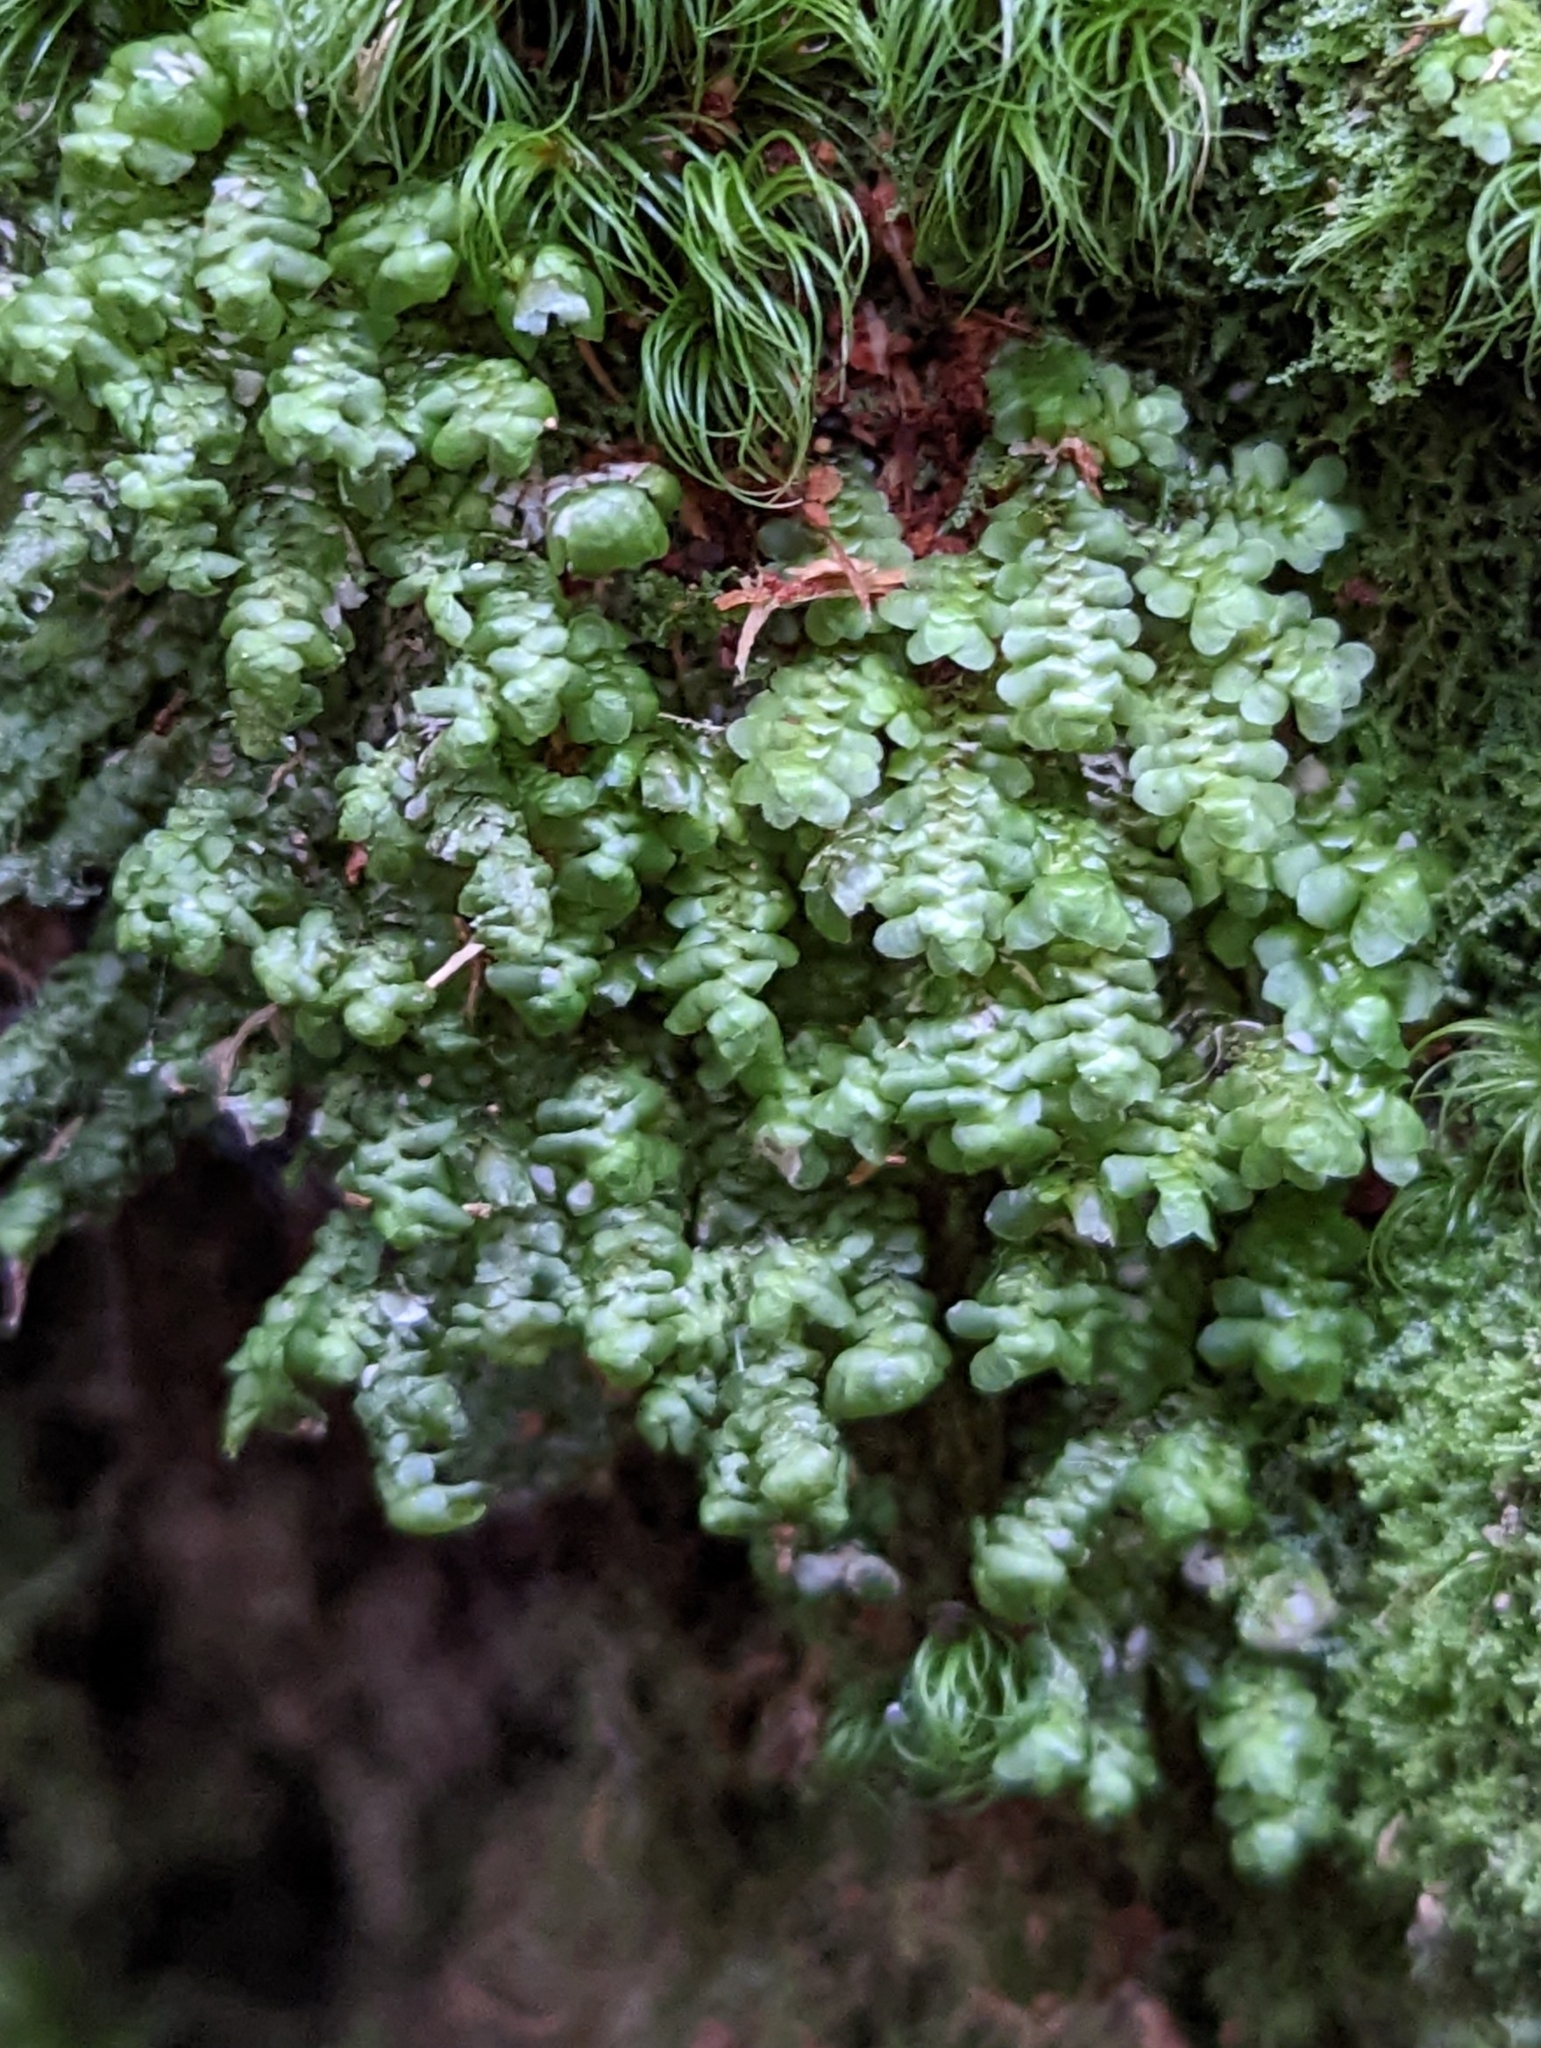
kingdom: Plantae
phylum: Marchantiophyta
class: Jungermanniopsida
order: Jungermanniales
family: Scapaniaceae
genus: Scapania
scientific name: Scapania bolanderi
